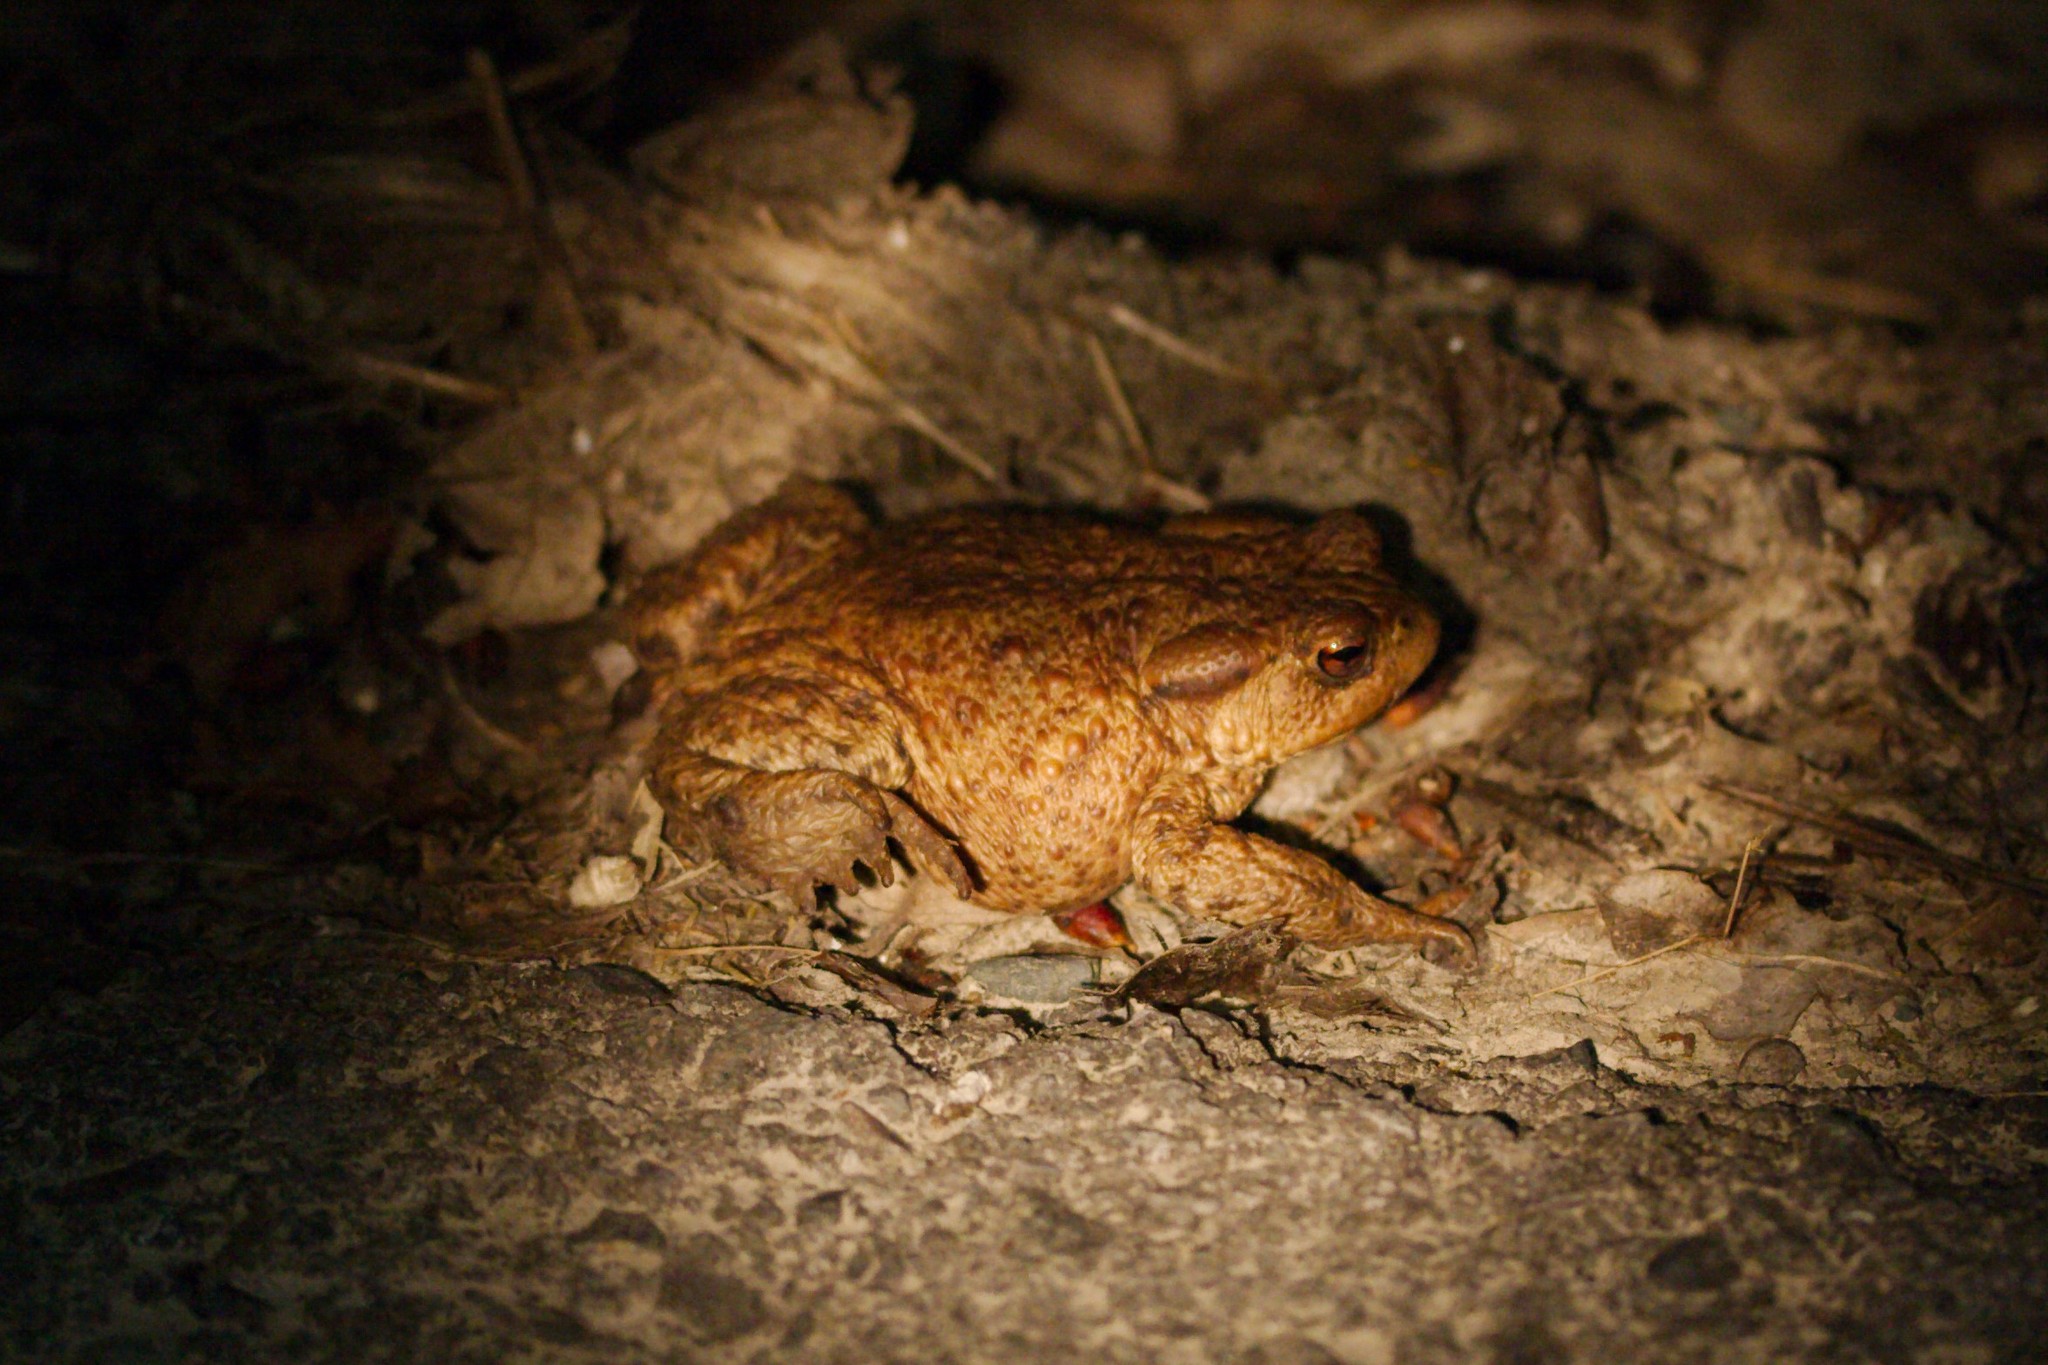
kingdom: Animalia
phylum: Chordata
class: Amphibia
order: Anura
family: Bufonidae
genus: Bufo
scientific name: Bufo bufo
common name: Common toad
